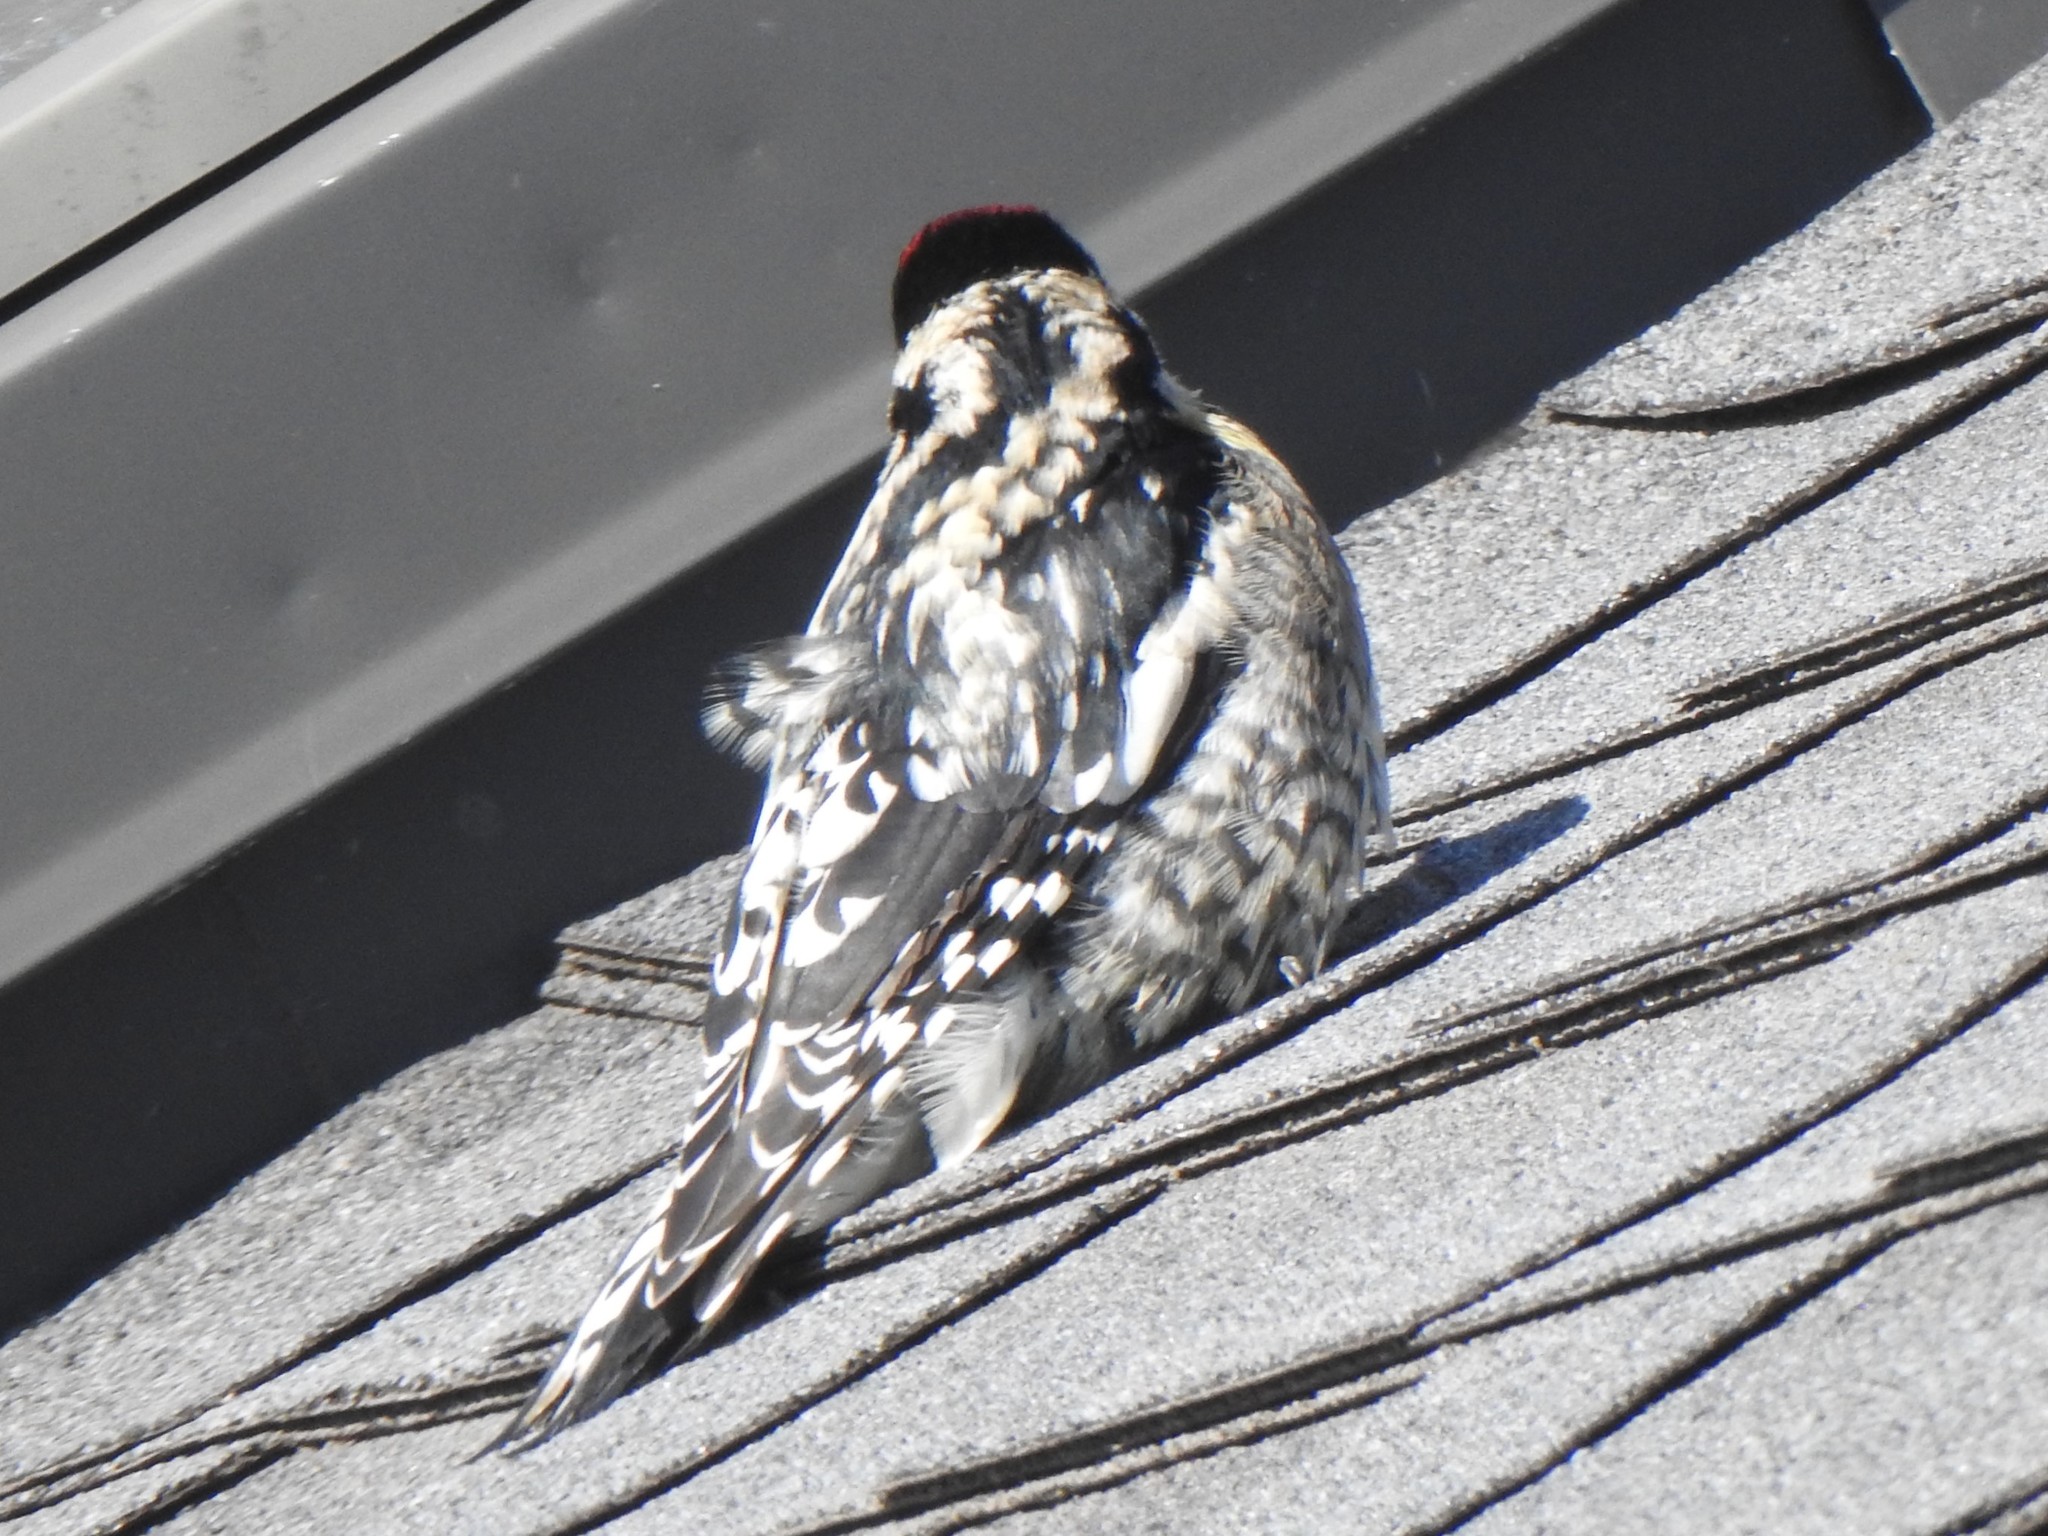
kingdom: Animalia
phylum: Chordata
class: Aves
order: Piciformes
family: Picidae
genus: Sphyrapicus
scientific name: Sphyrapicus varius
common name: Yellow-bellied sapsucker
